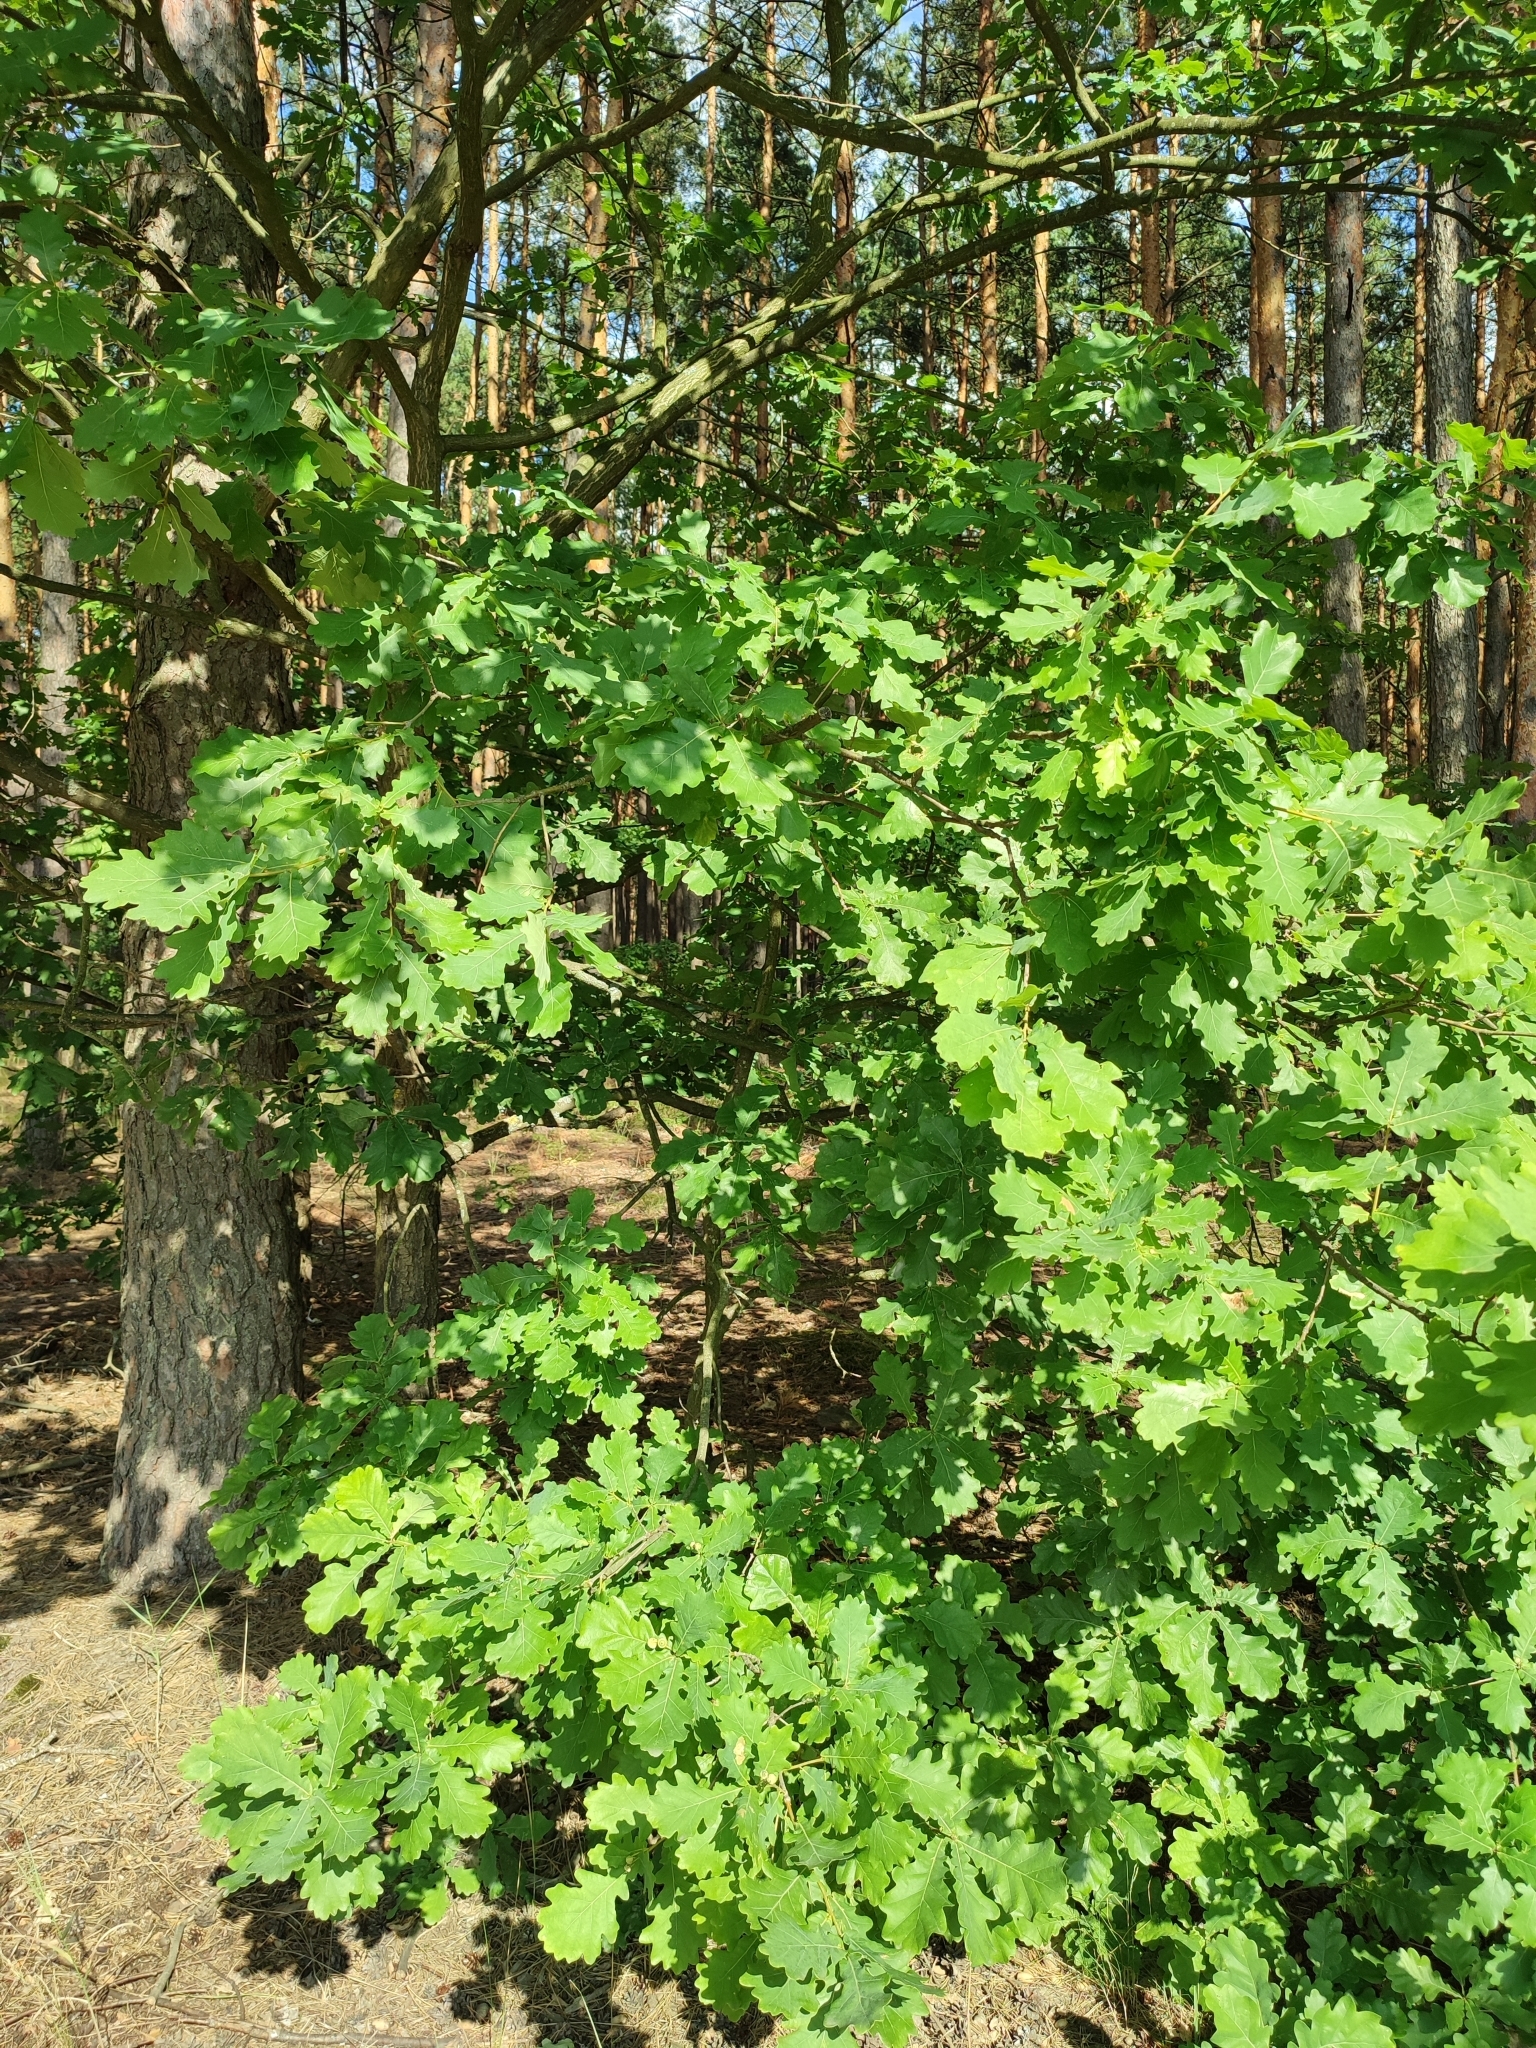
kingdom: Plantae
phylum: Tracheophyta
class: Magnoliopsida
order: Fagales
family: Fagaceae
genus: Quercus
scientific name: Quercus robur
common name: Pedunculate oak
